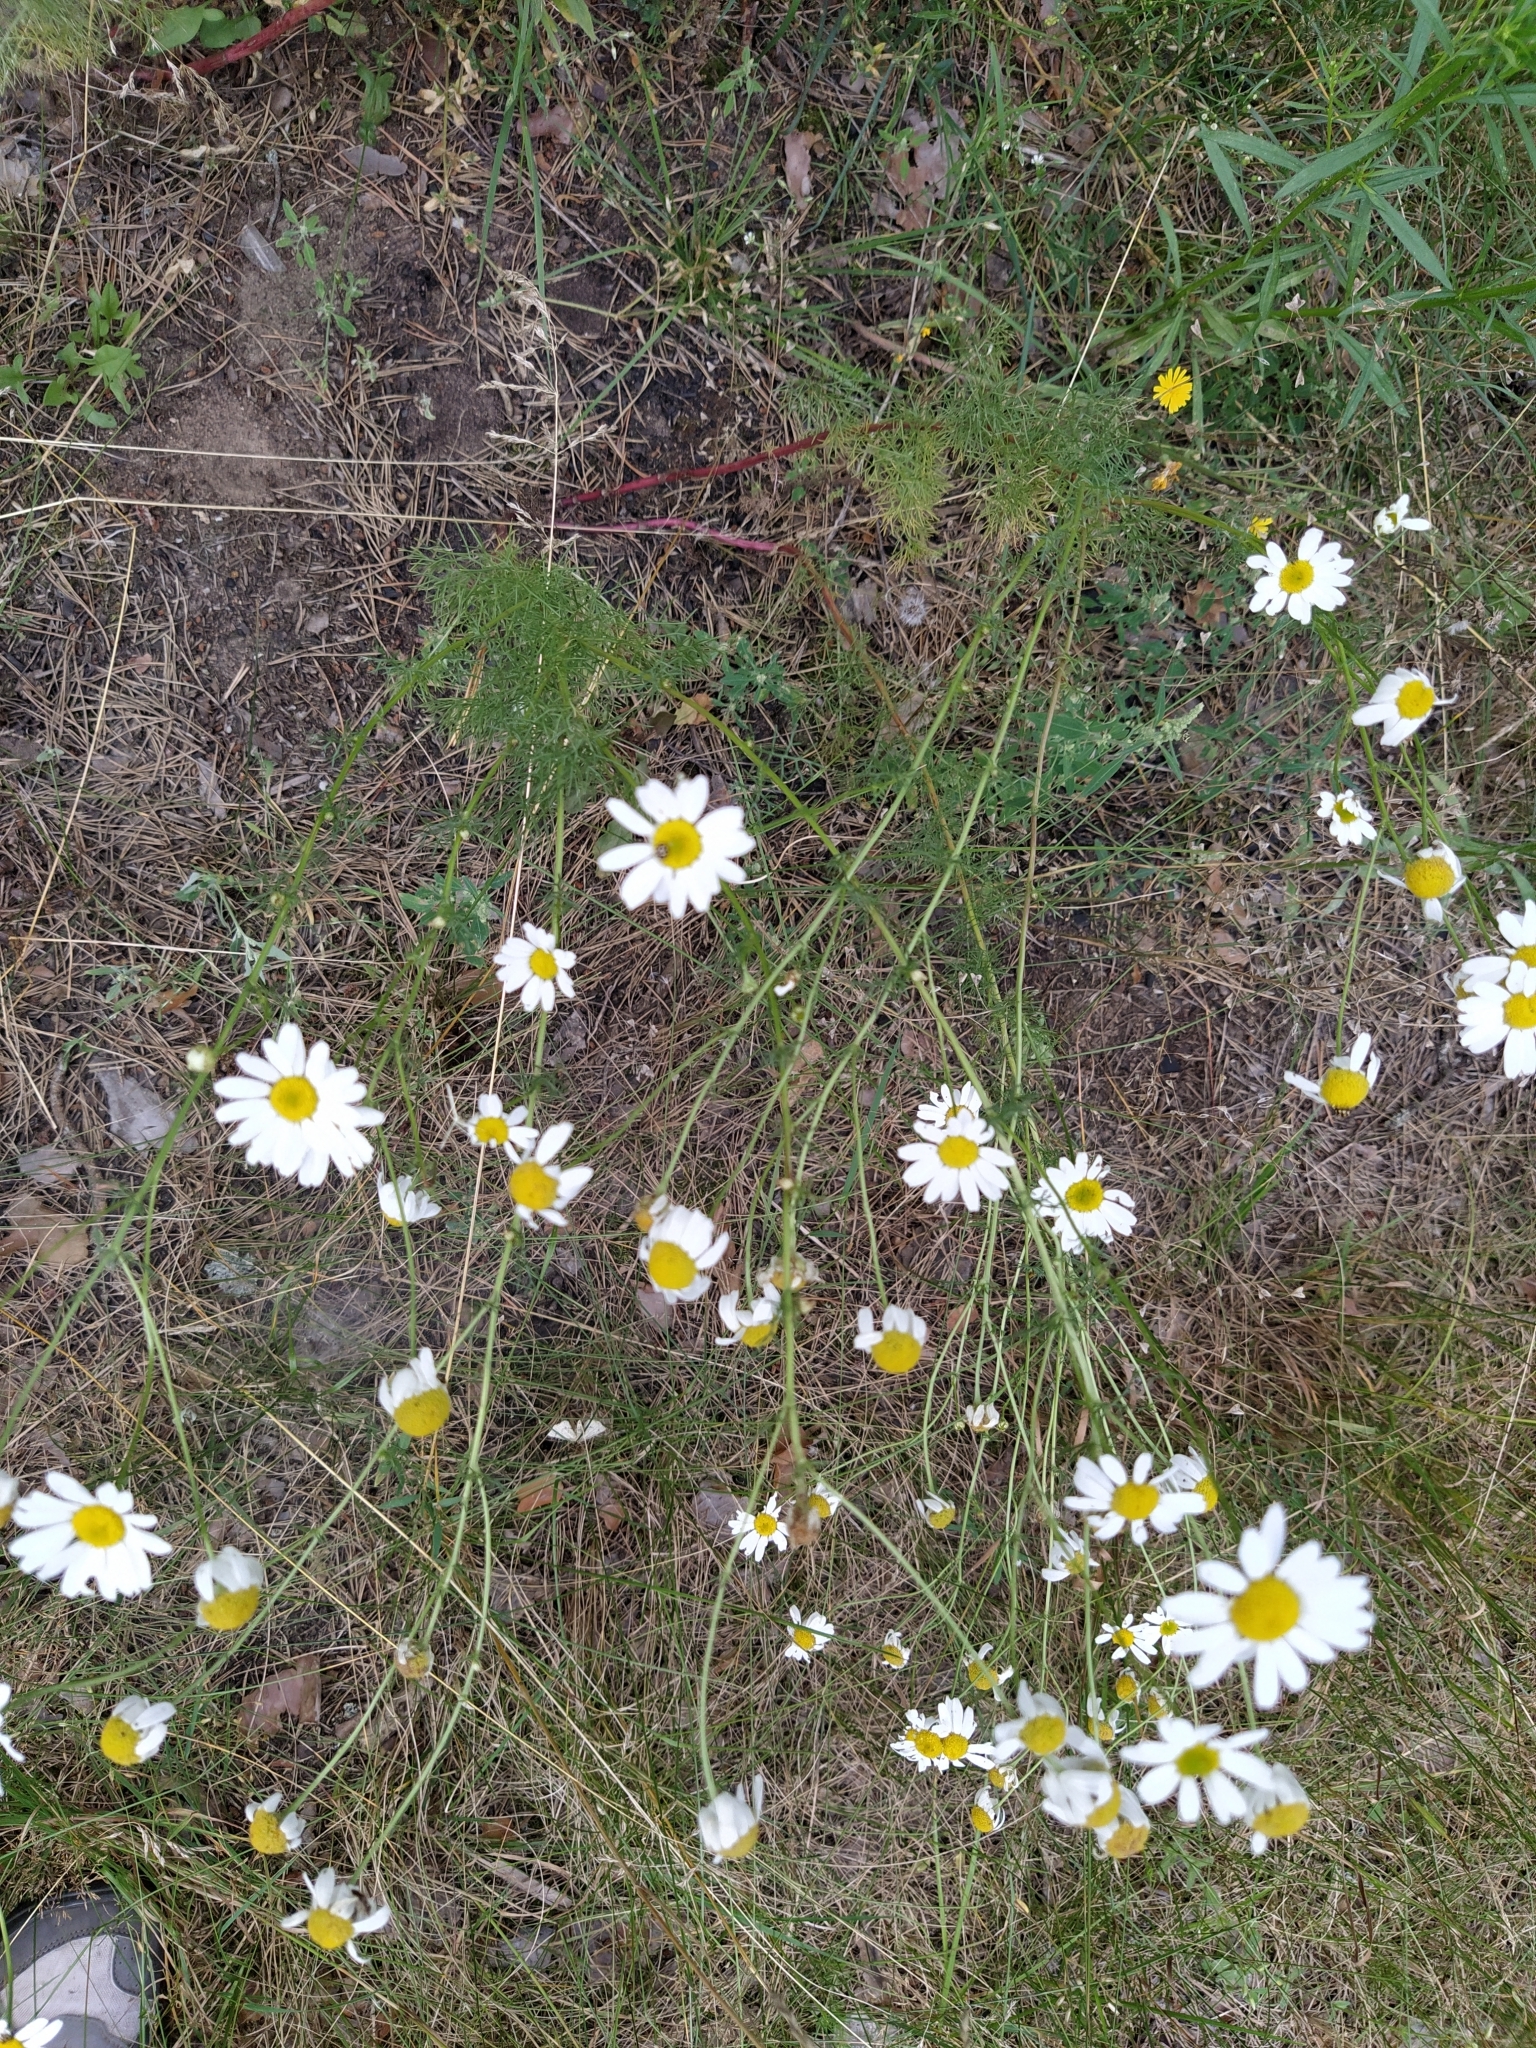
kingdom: Plantae
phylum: Tracheophyta
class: Magnoliopsida
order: Asterales
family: Asteraceae
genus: Tripleurospermum
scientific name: Tripleurospermum inodorum
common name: Scentless mayweed
